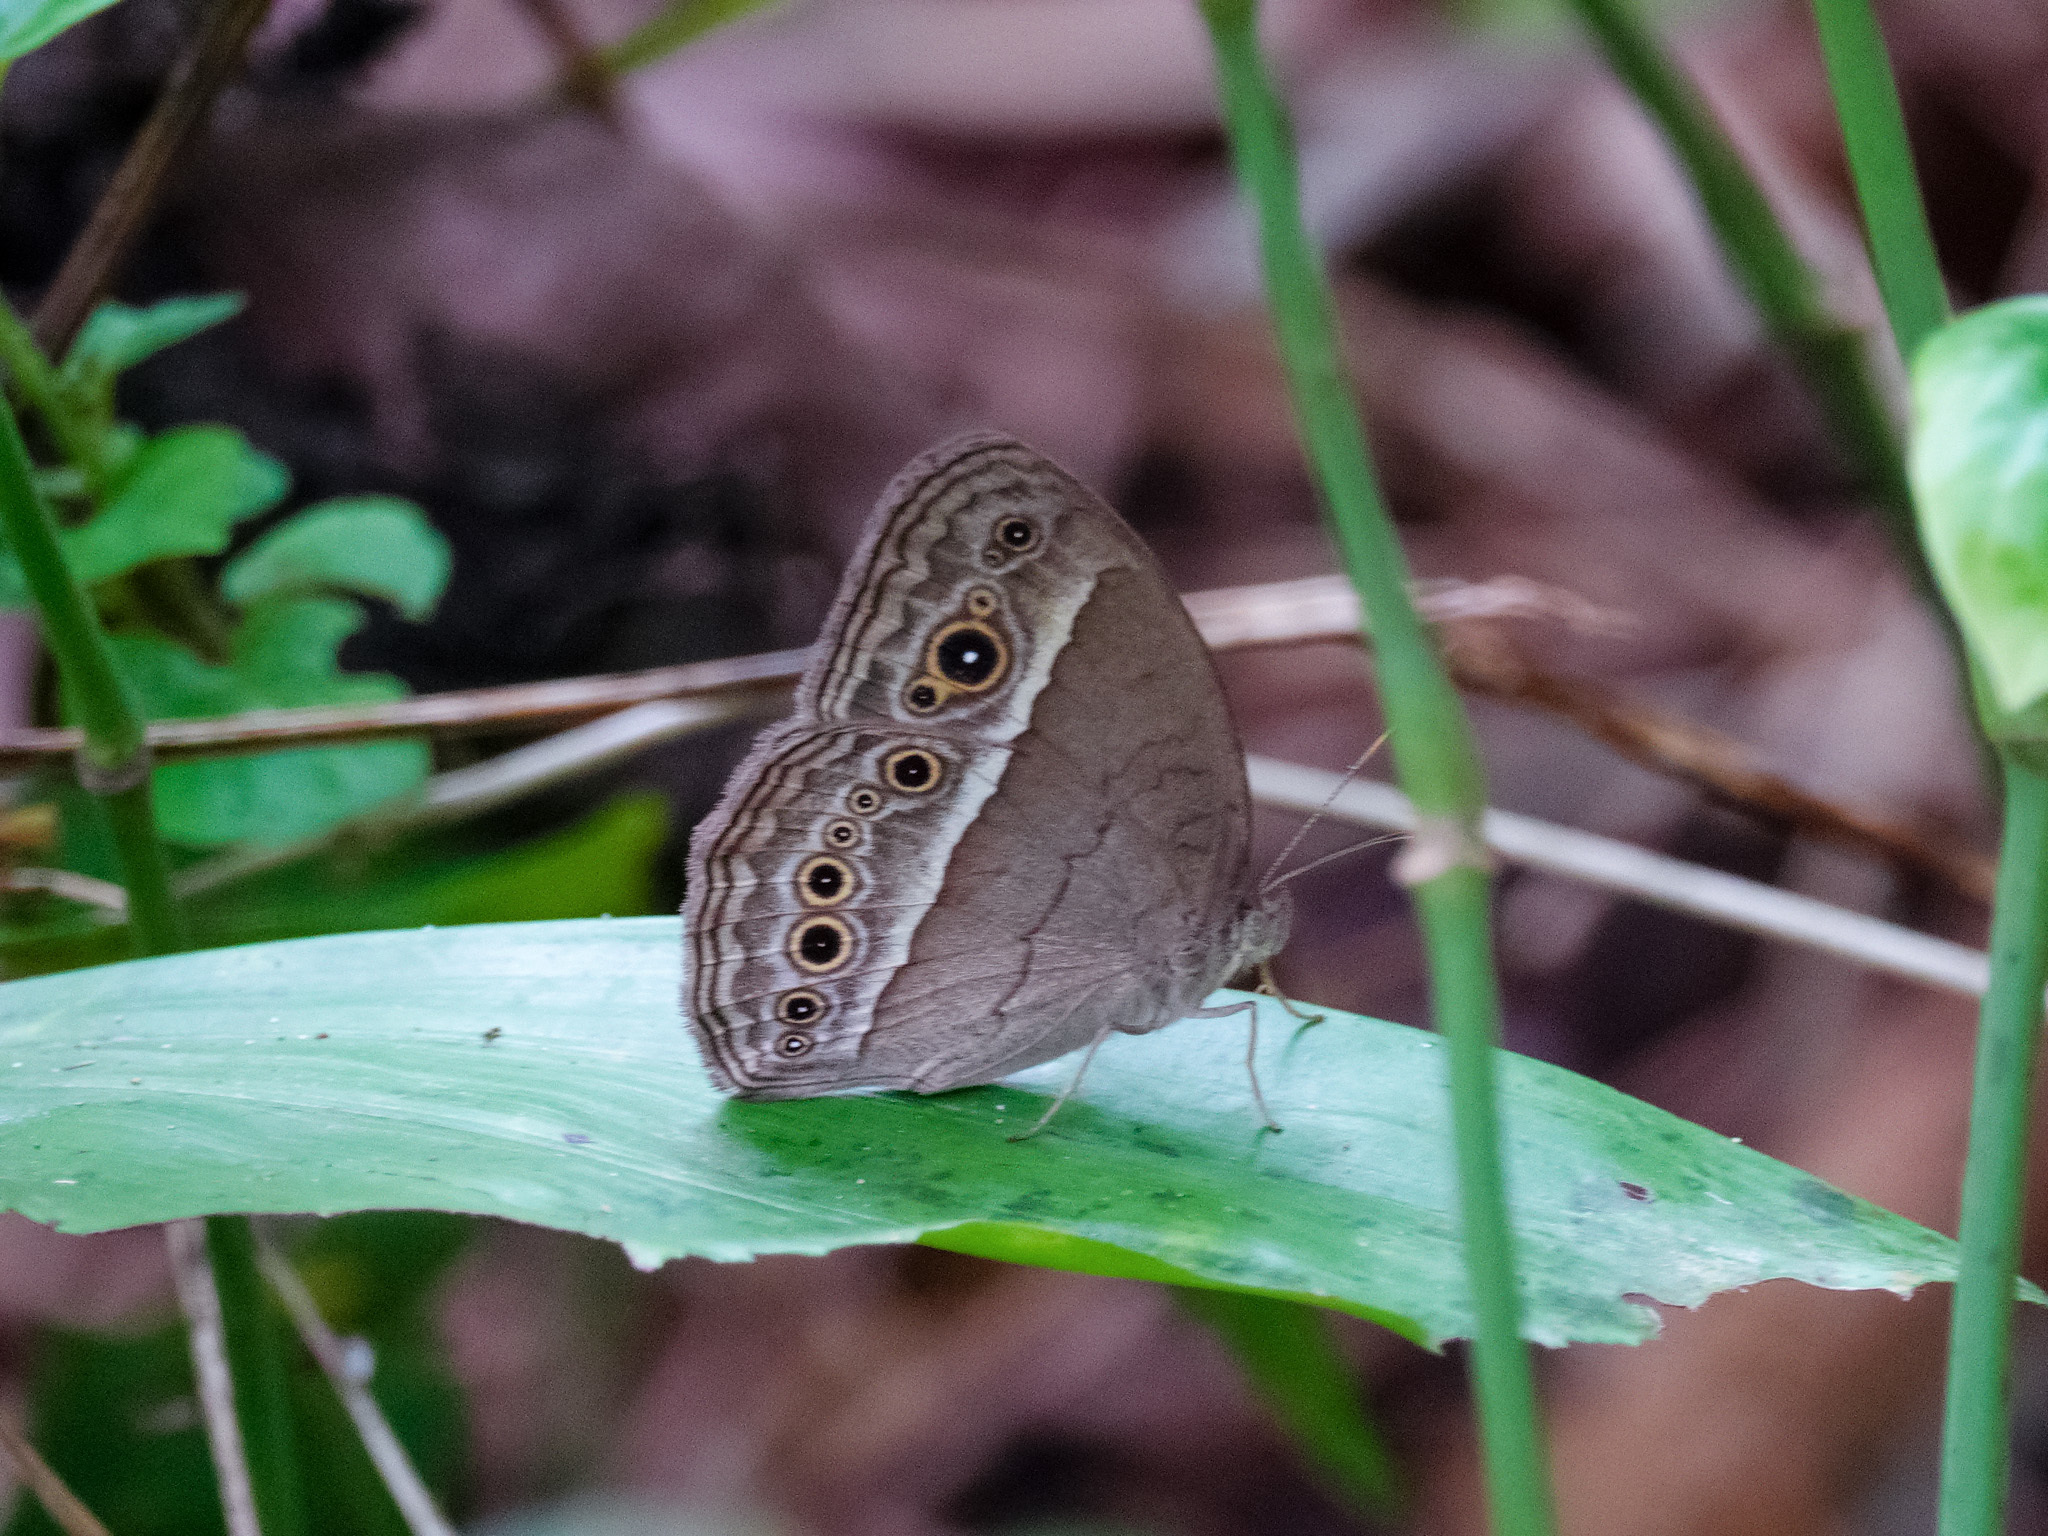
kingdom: Animalia
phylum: Arthropoda
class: Insecta
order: Lepidoptera
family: Nymphalidae
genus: Mycalesis
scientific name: Mycalesis perseoides
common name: Burmese bushbrown
